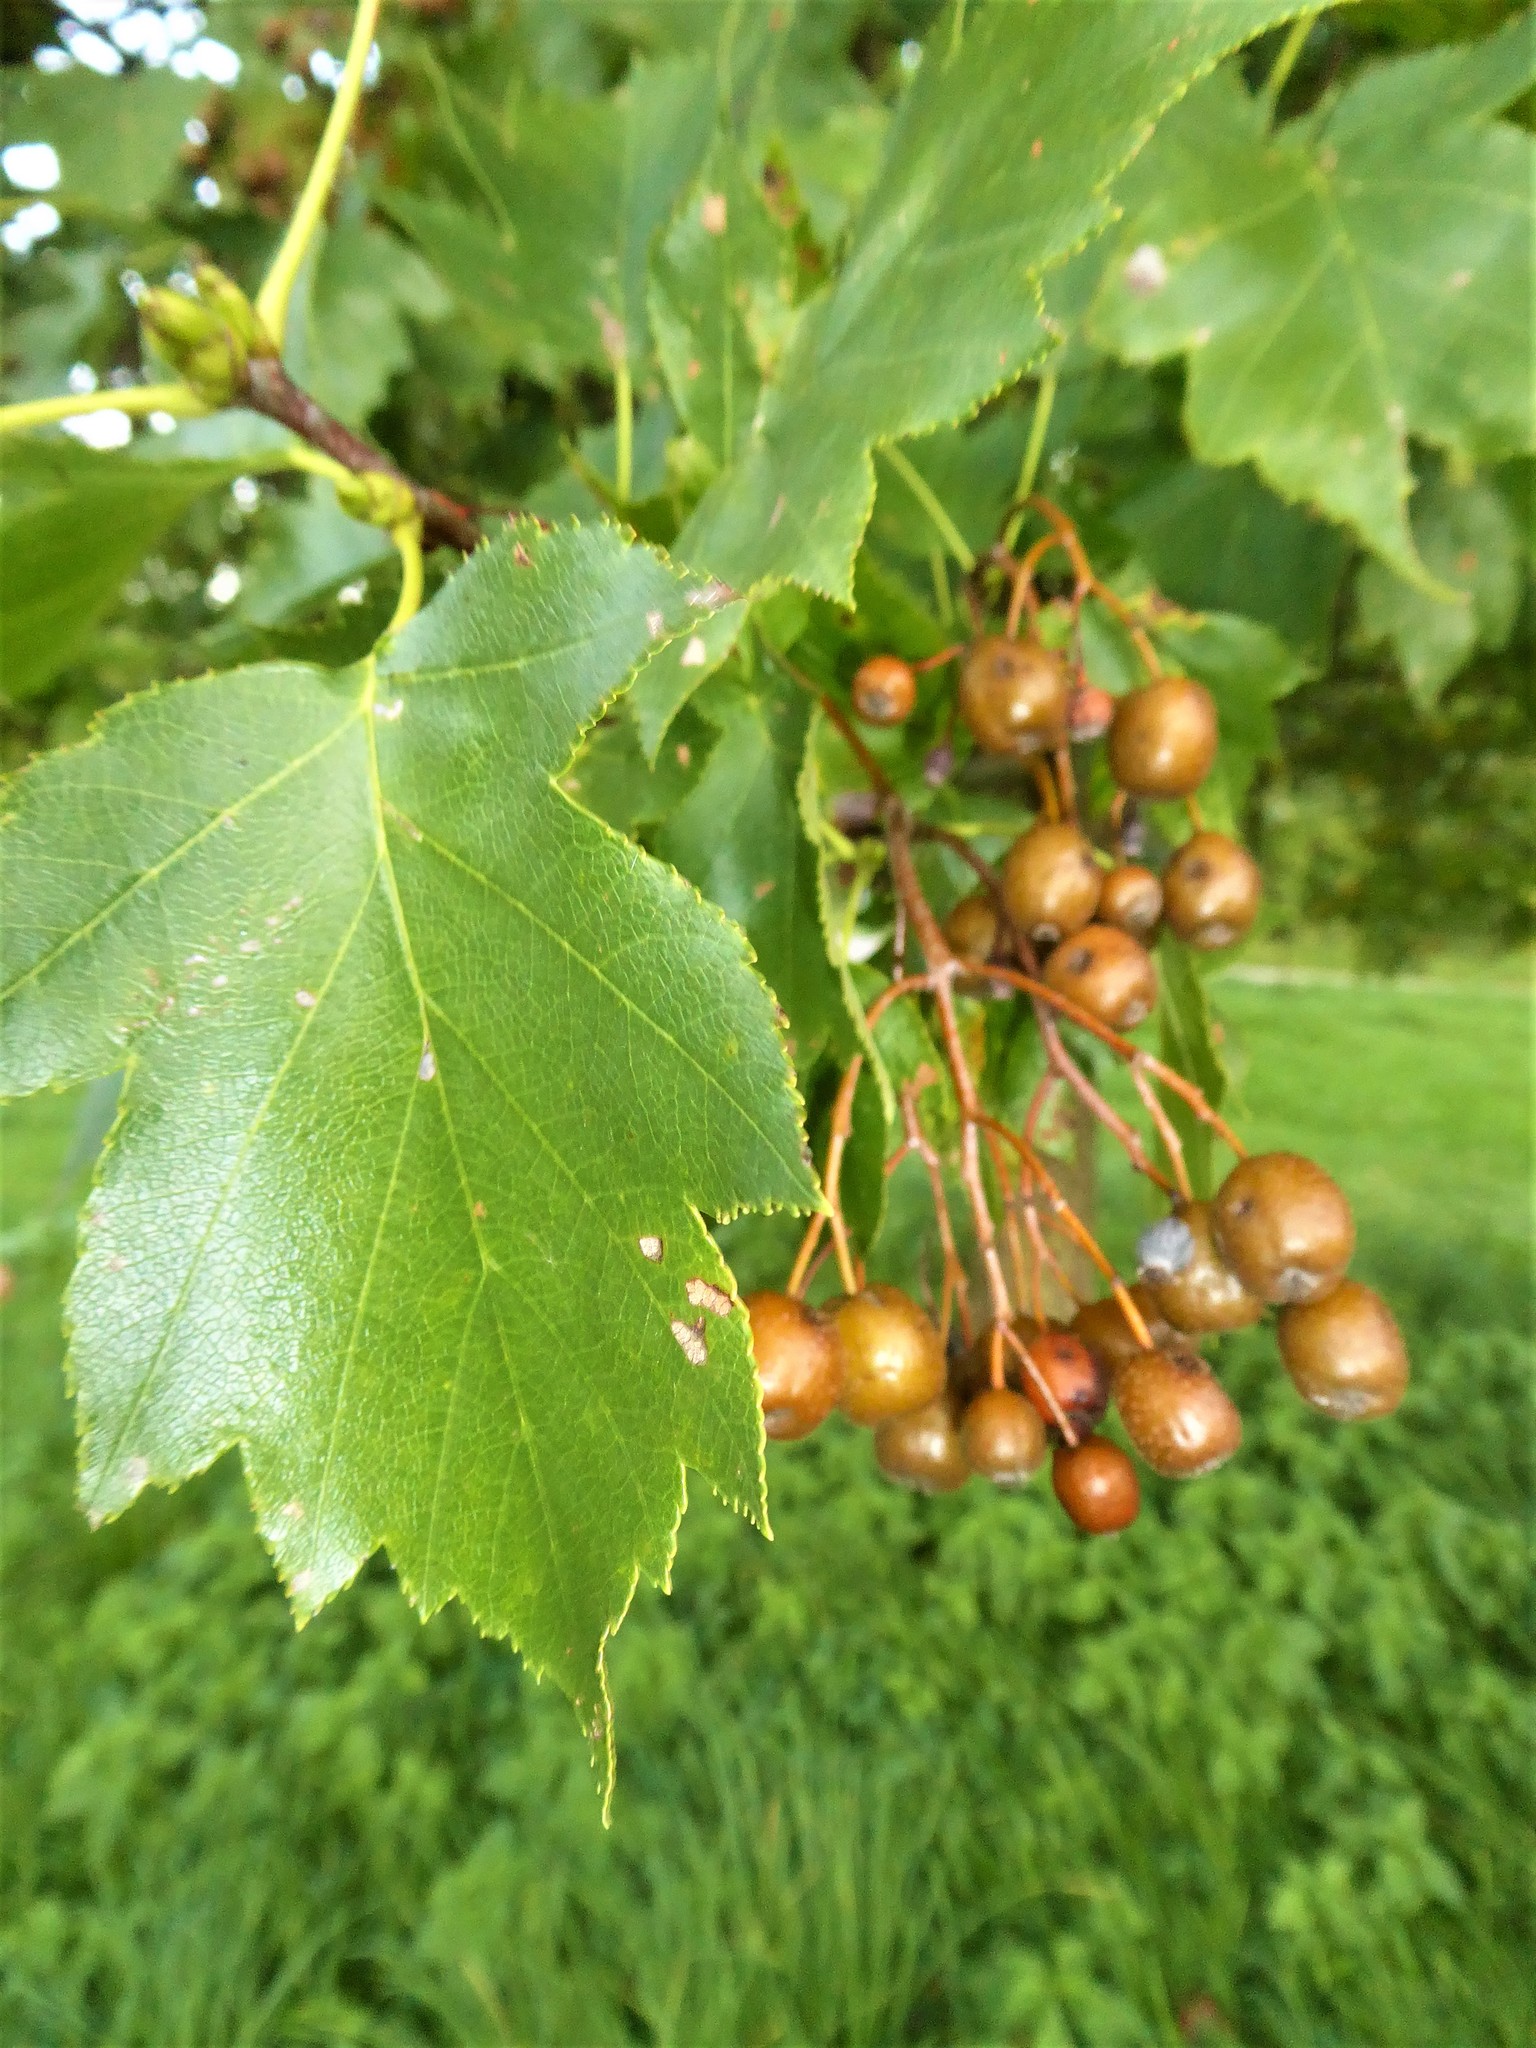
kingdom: Plantae
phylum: Tracheophyta
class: Magnoliopsida
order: Rosales
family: Rosaceae
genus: Torminalis
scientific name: Torminalis glaberrima
